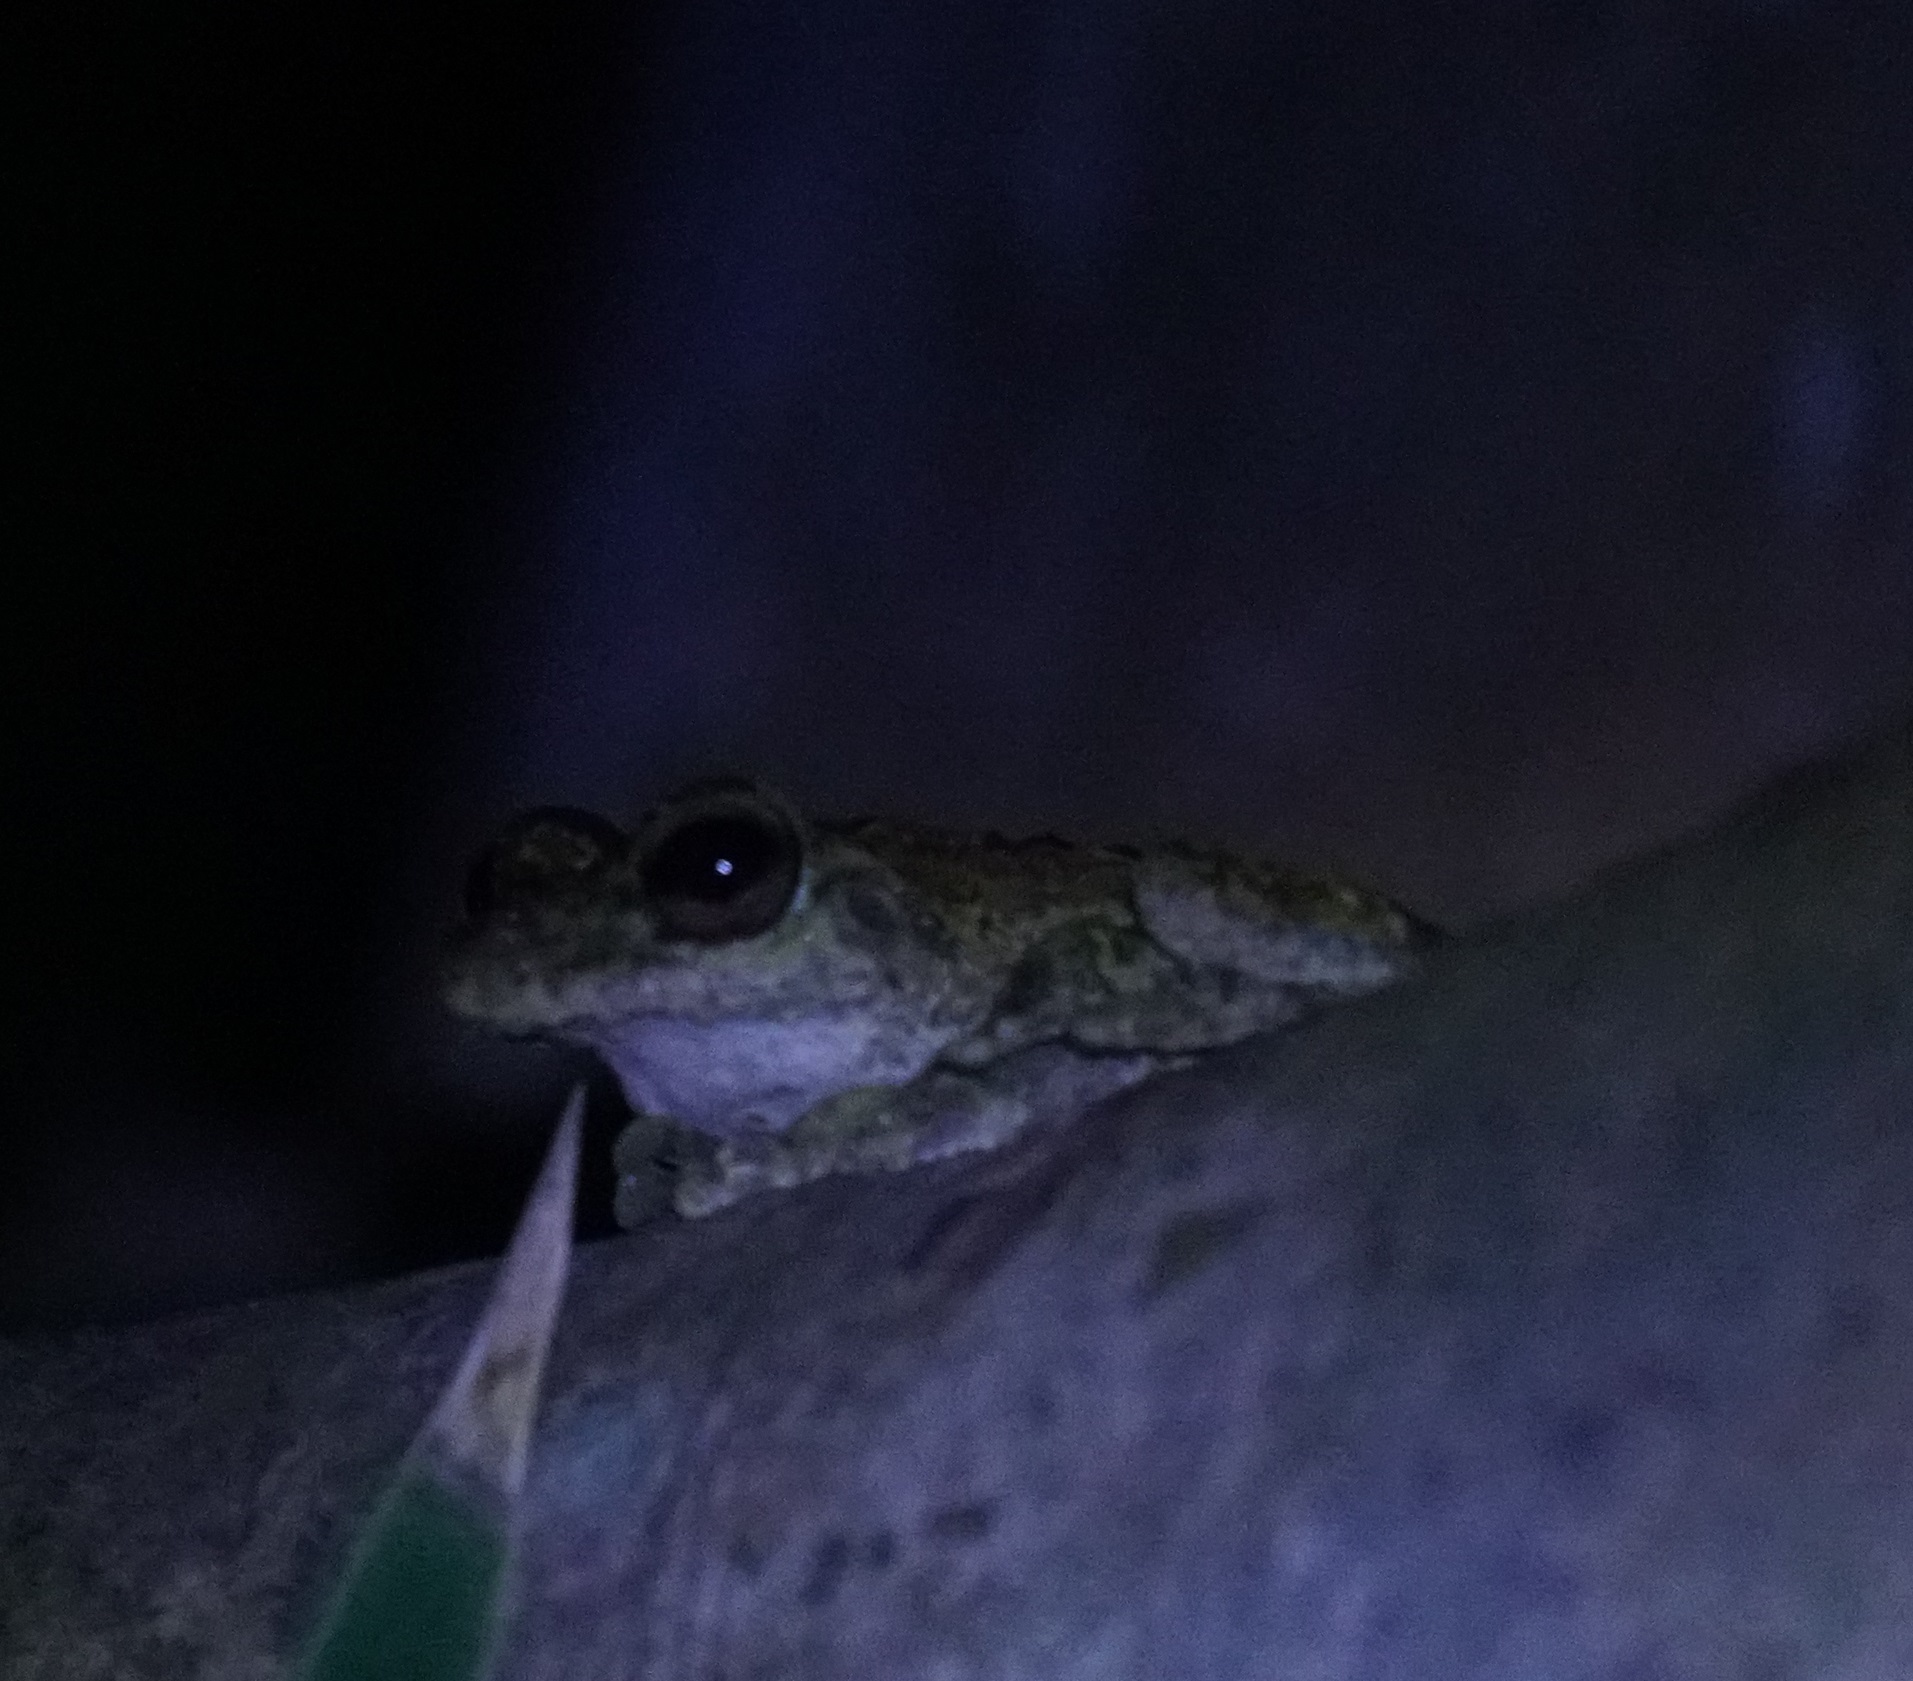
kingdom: Animalia
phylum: Chordata
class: Amphibia
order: Anura
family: Hylidae
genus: Ranoidea
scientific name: Ranoidea
